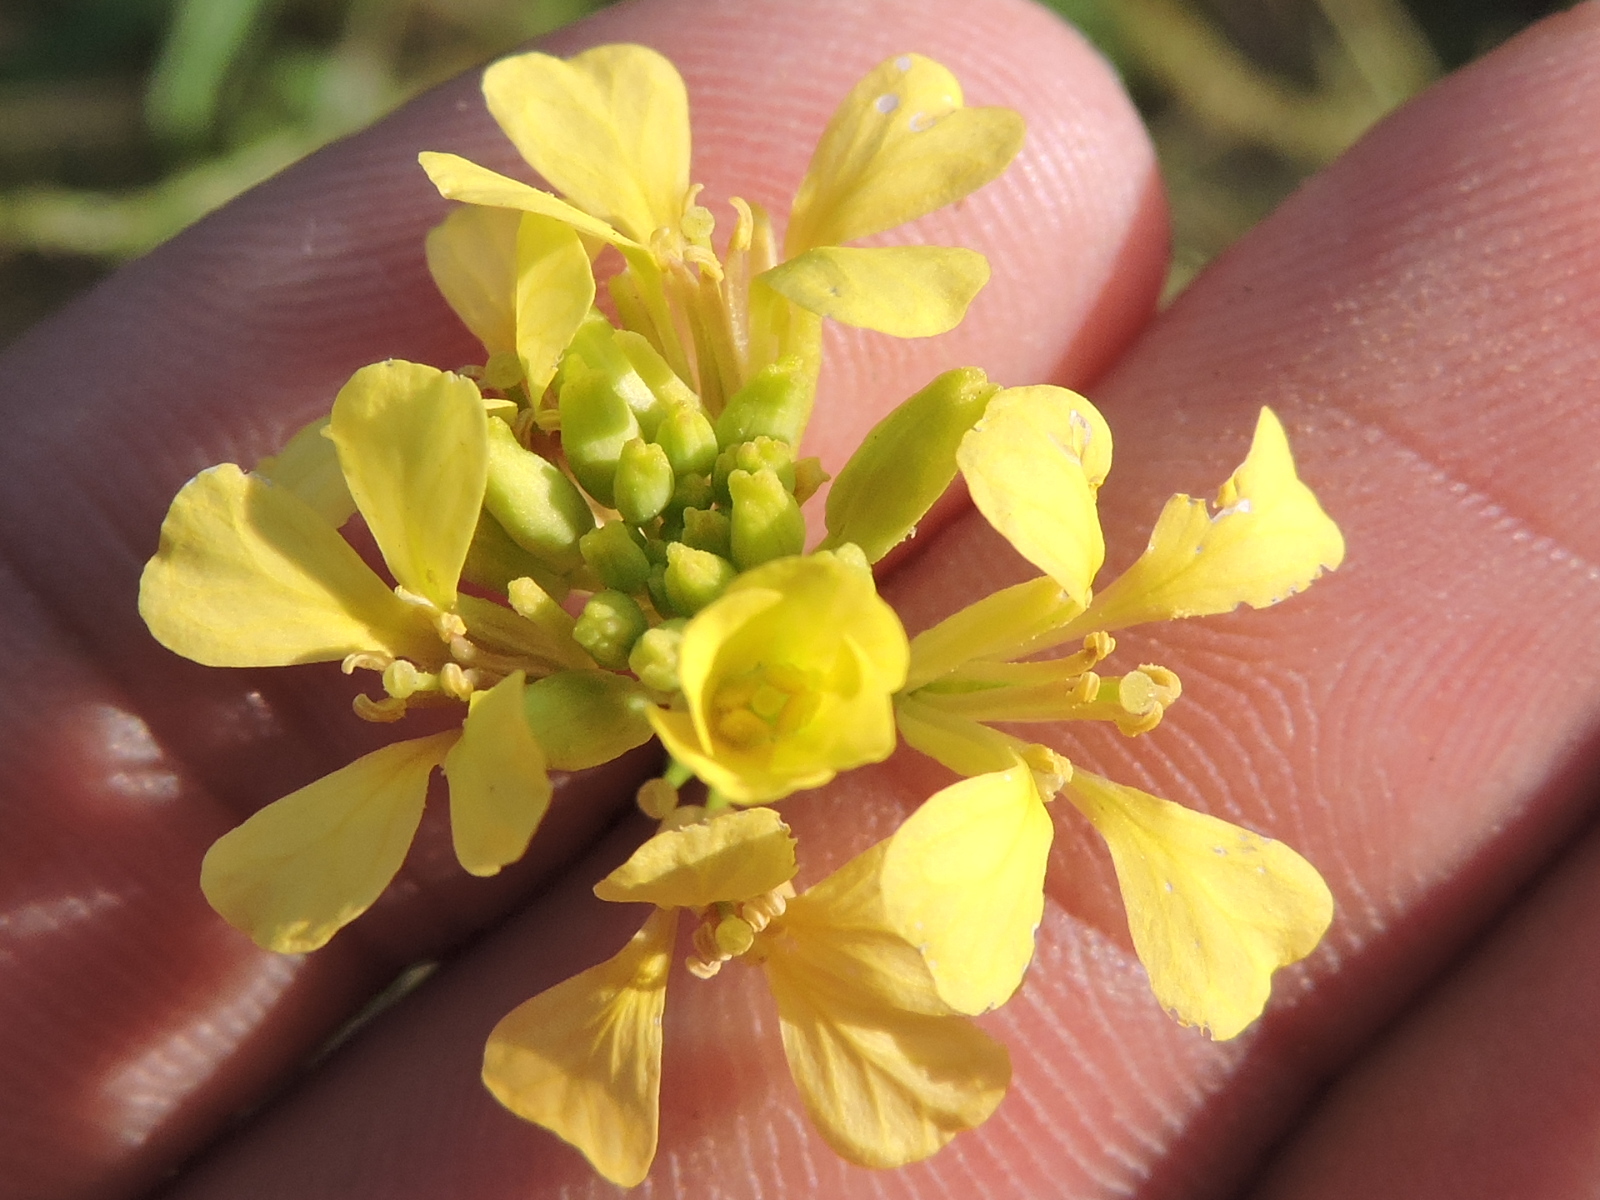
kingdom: Plantae
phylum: Tracheophyta
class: Magnoliopsida
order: Brassicales
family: Brassicaceae
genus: Rapistrum
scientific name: Rapistrum rugosum
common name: Annual bastardcabbage
